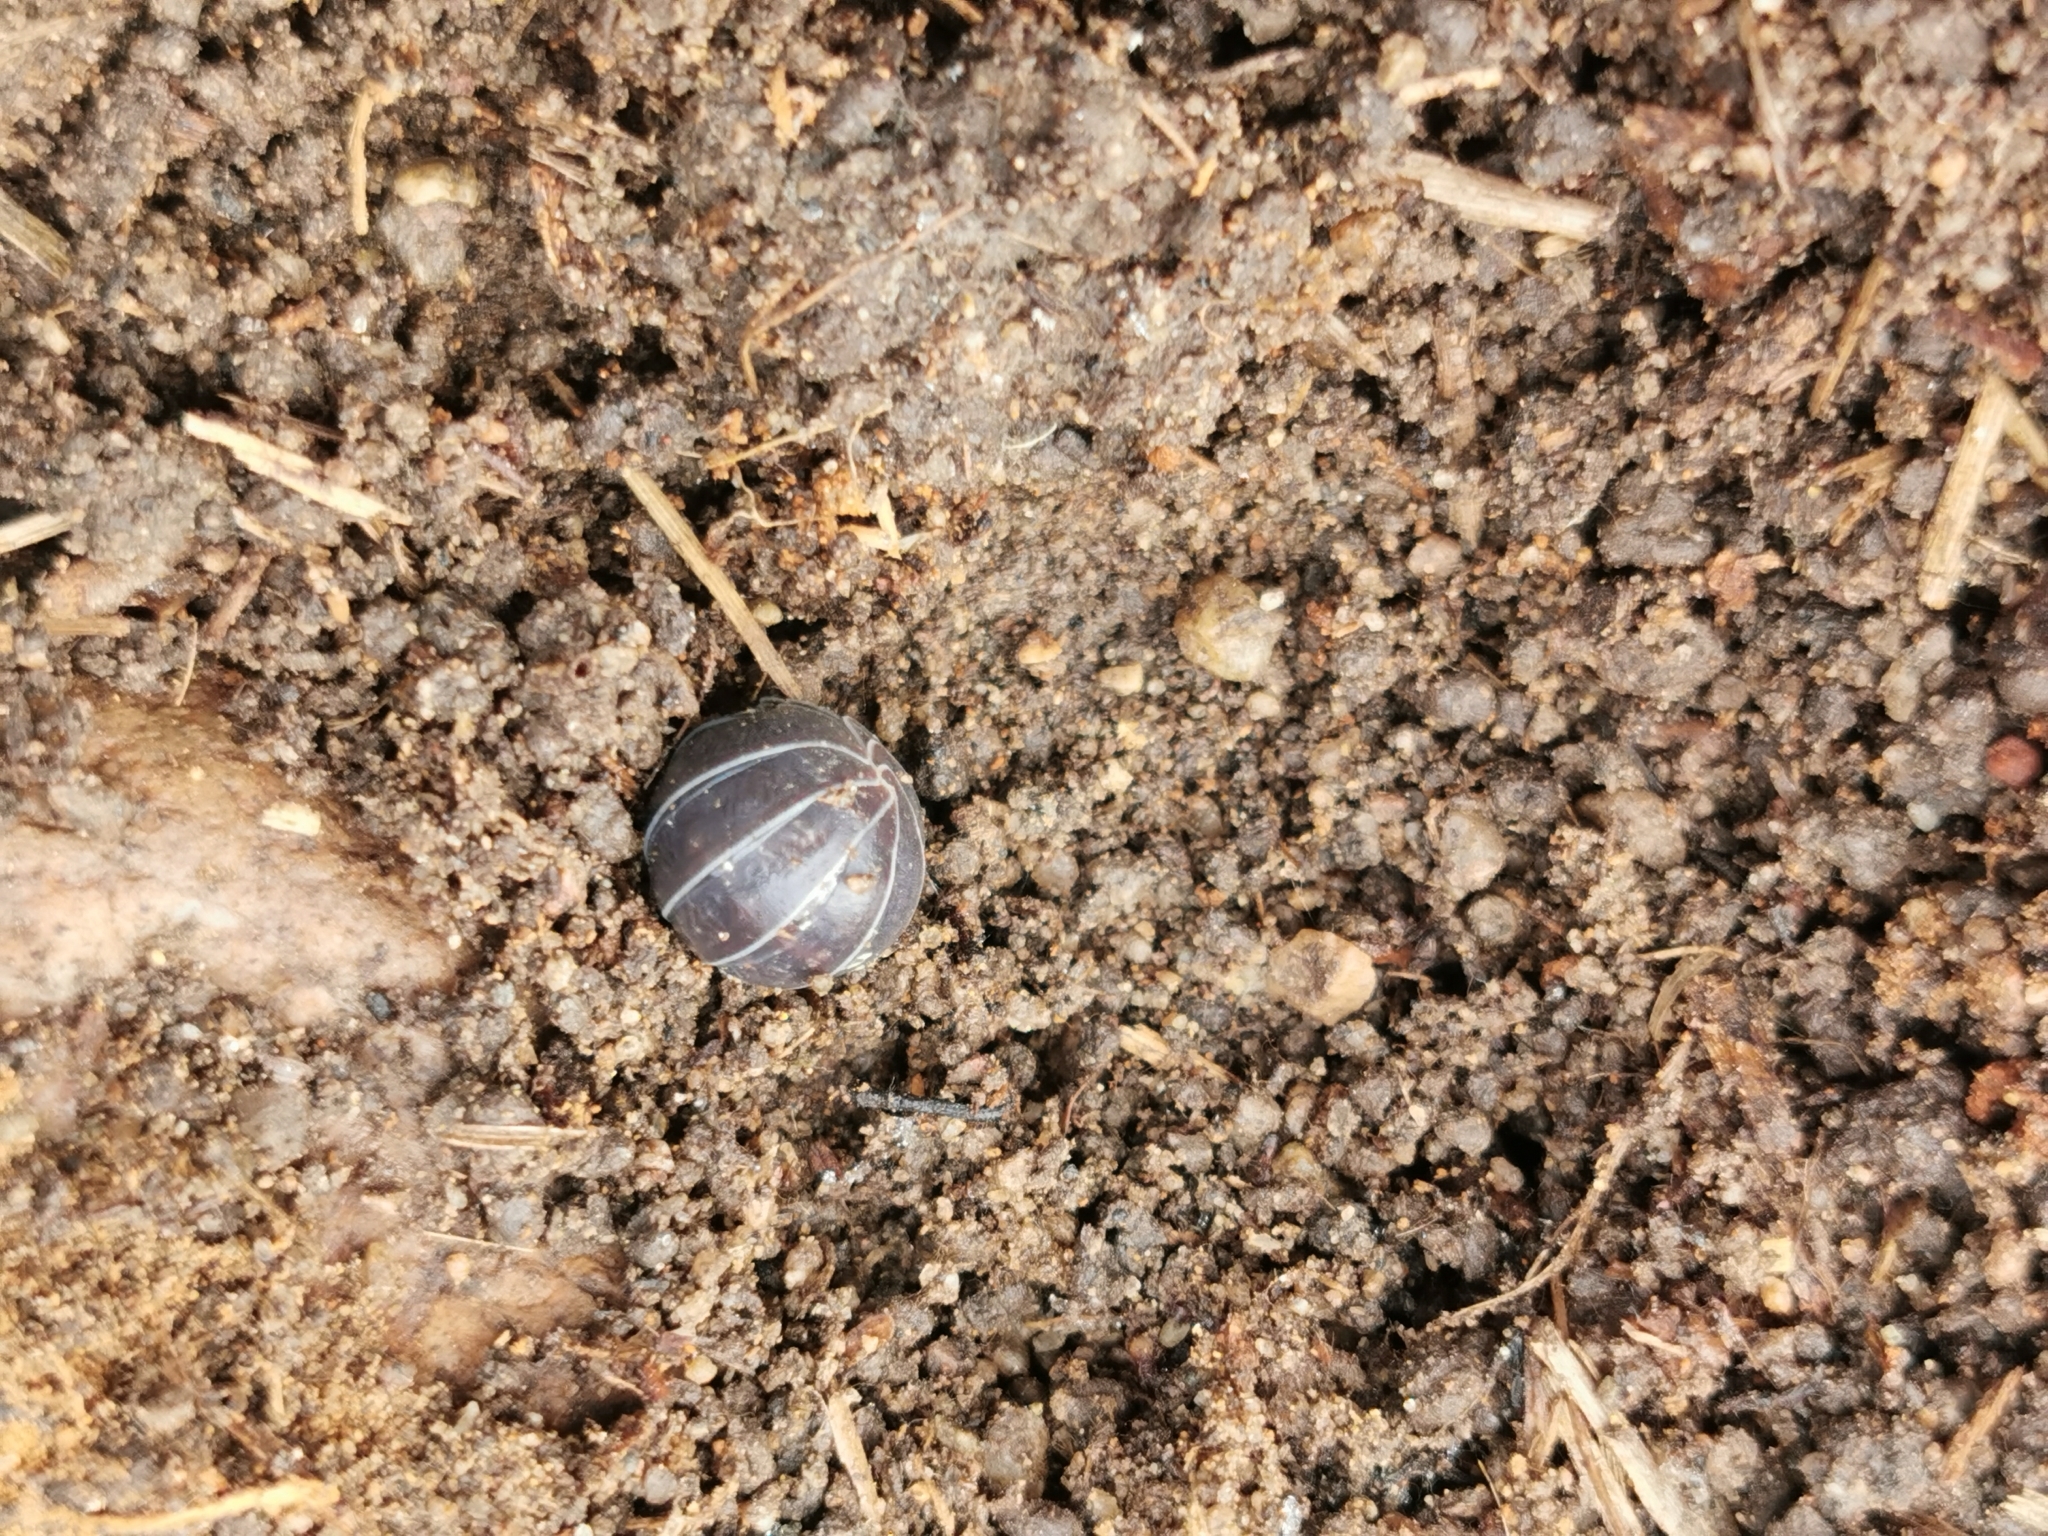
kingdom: Animalia
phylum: Arthropoda
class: Malacostraca
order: Isopoda
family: Armadillidiidae
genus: Armadillidium
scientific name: Armadillidium vulgare
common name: Common pill woodlouse
